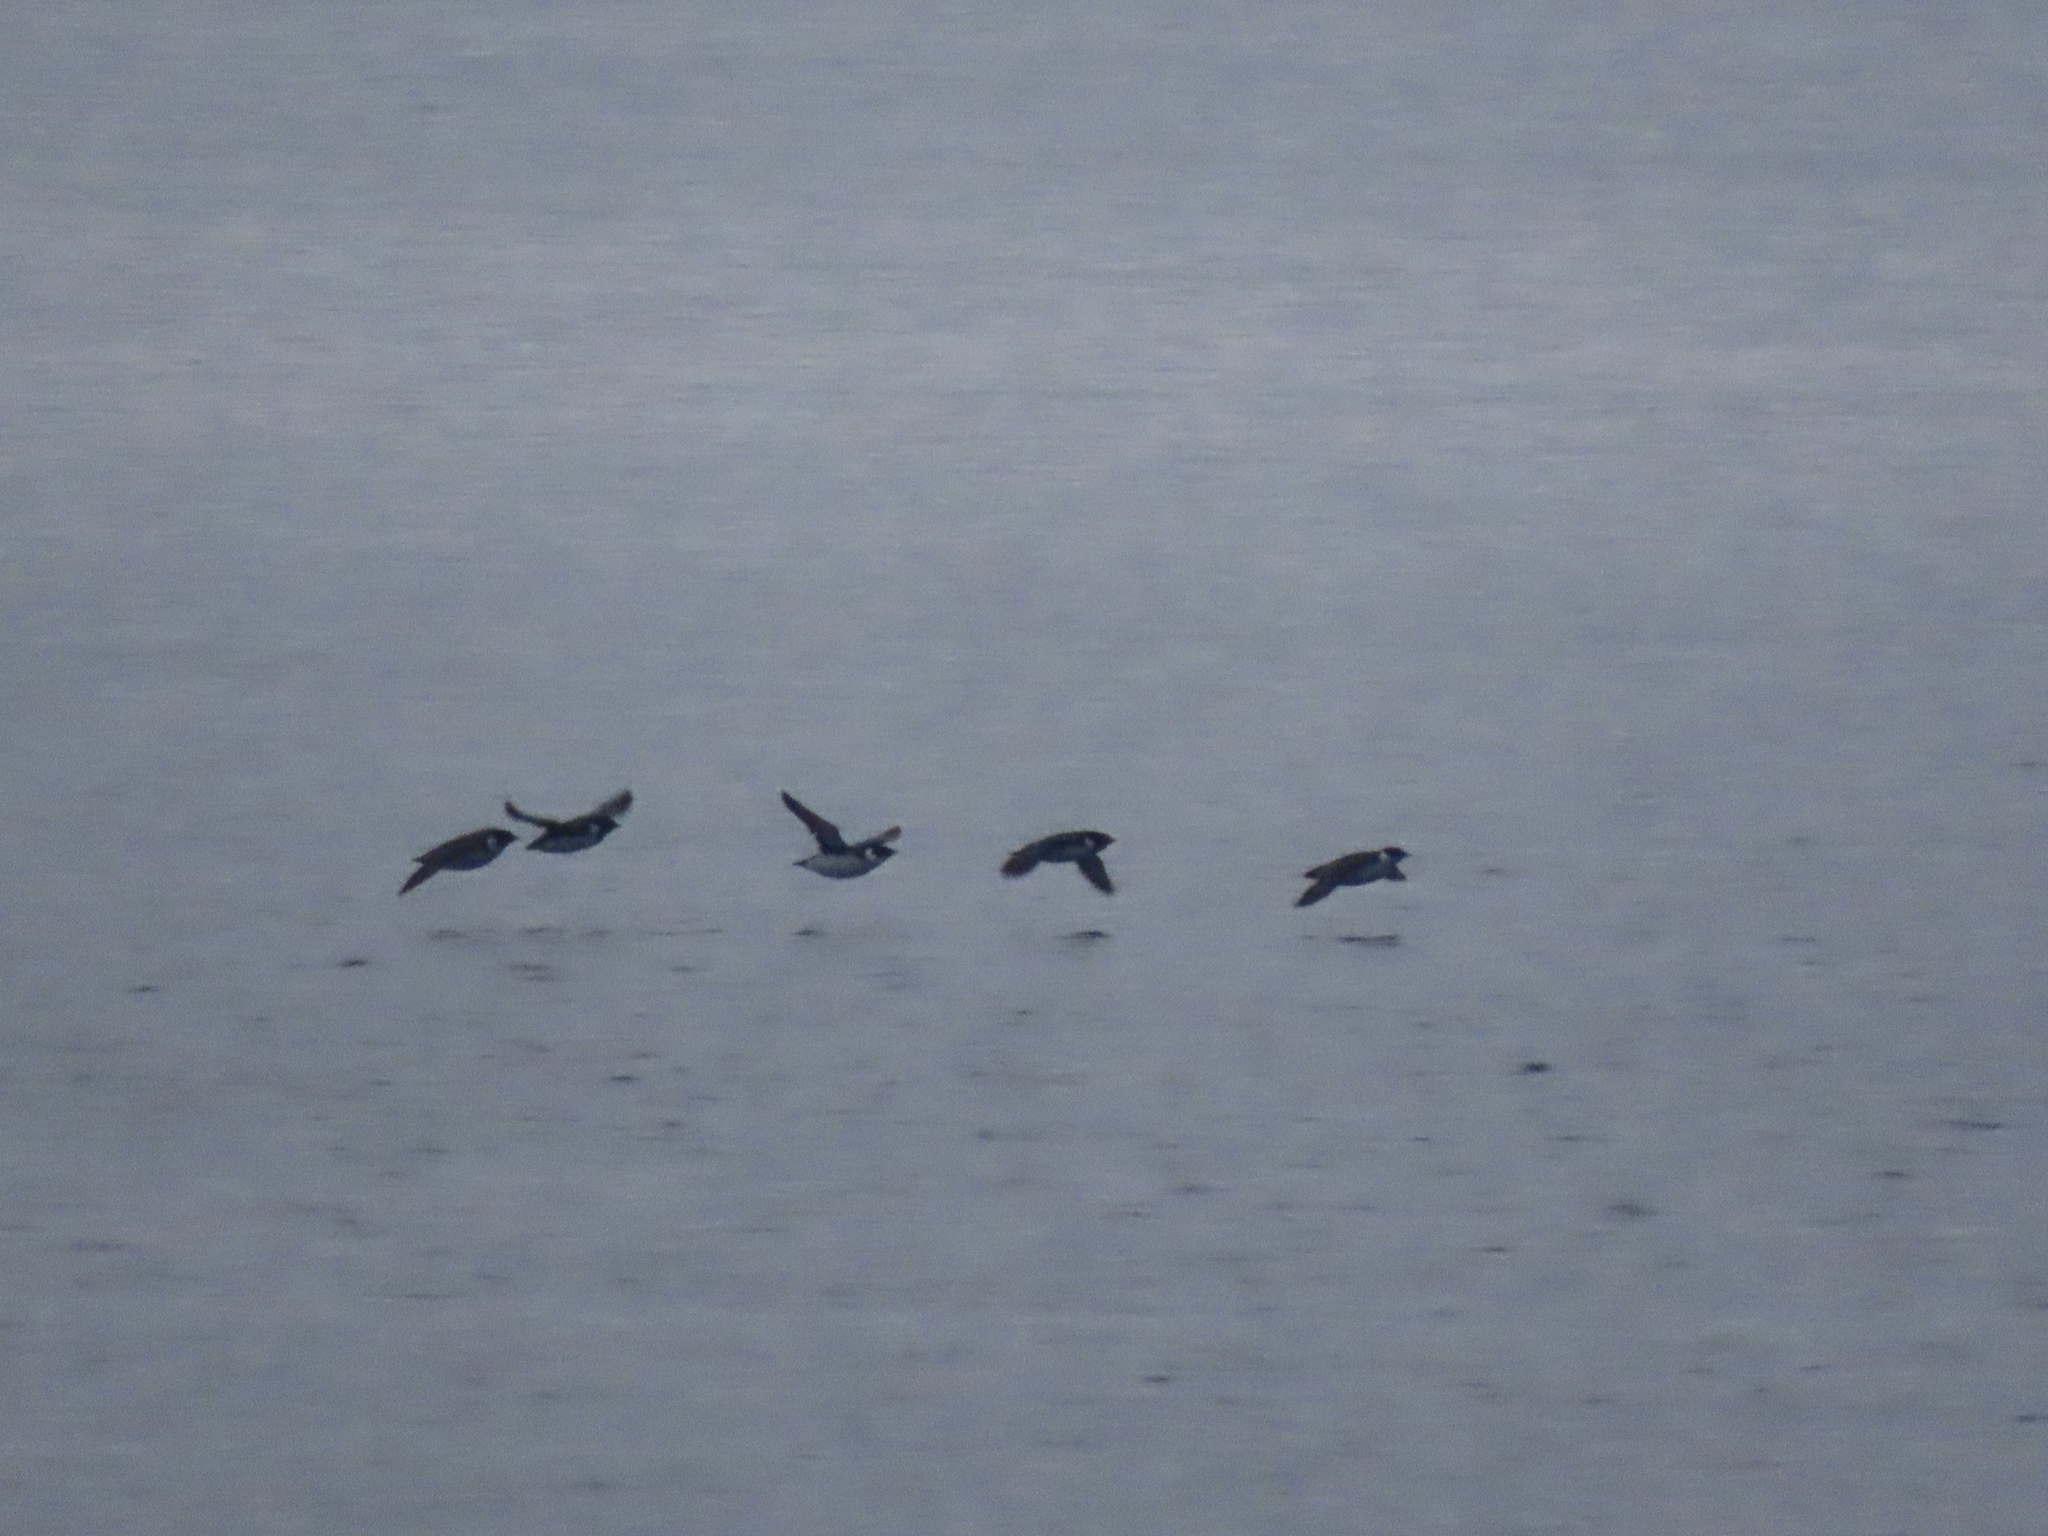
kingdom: Animalia
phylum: Chordata
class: Aves
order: Charadriiformes
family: Alcidae
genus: Synthliboramphus
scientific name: Synthliboramphus antiquus
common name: Ancient murrelet
